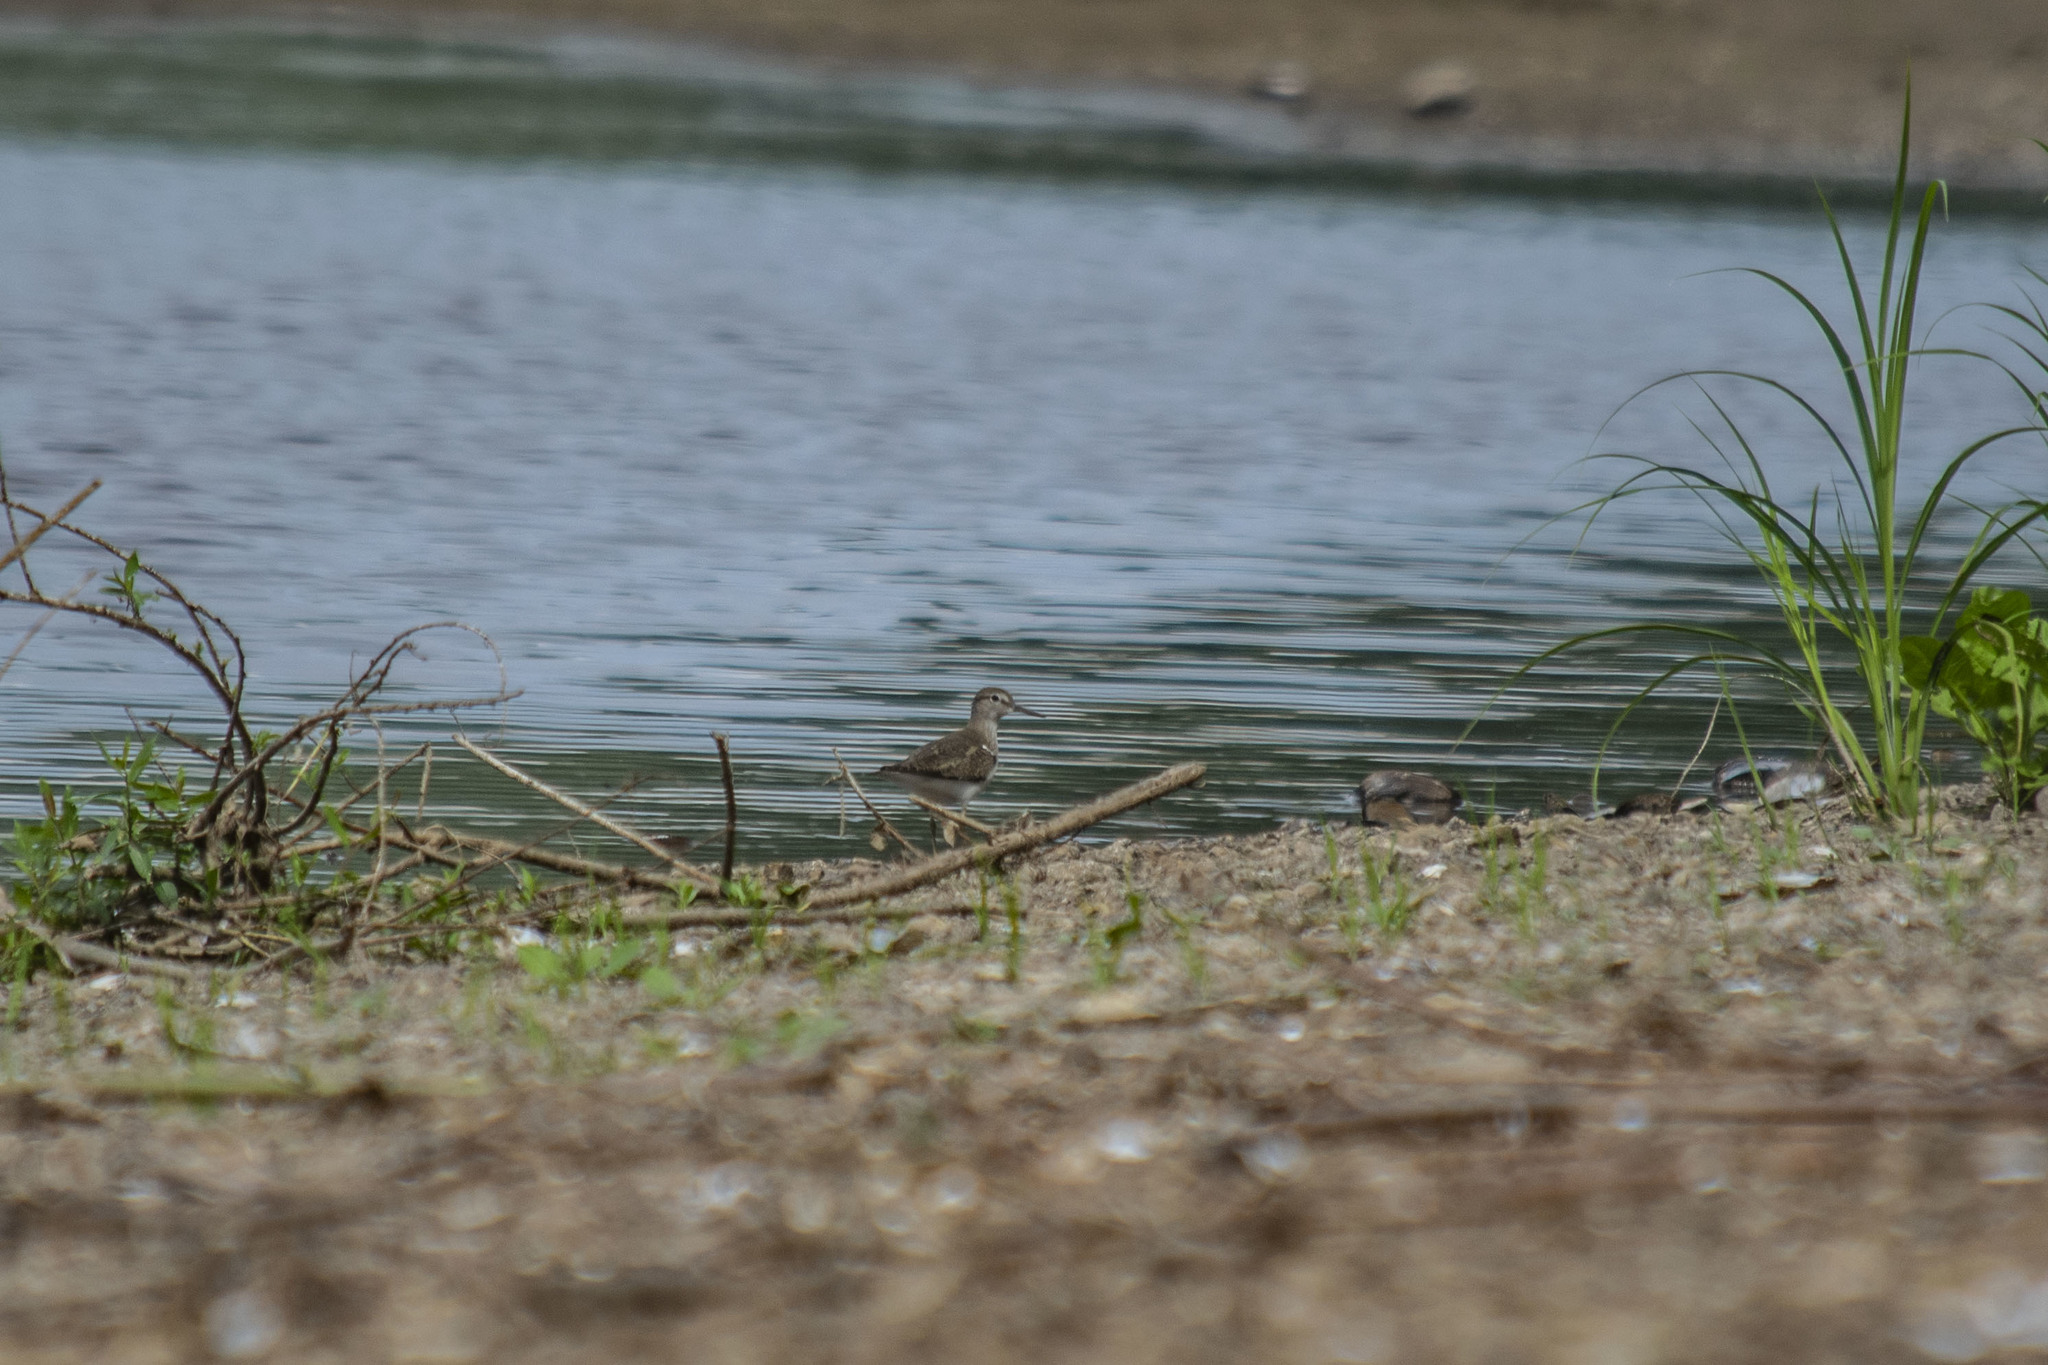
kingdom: Animalia
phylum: Chordata
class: Aves
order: Charadriiformes
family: Scolopacidae
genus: Actitis
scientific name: Actitis hypoleucos
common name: Common sandpiper
